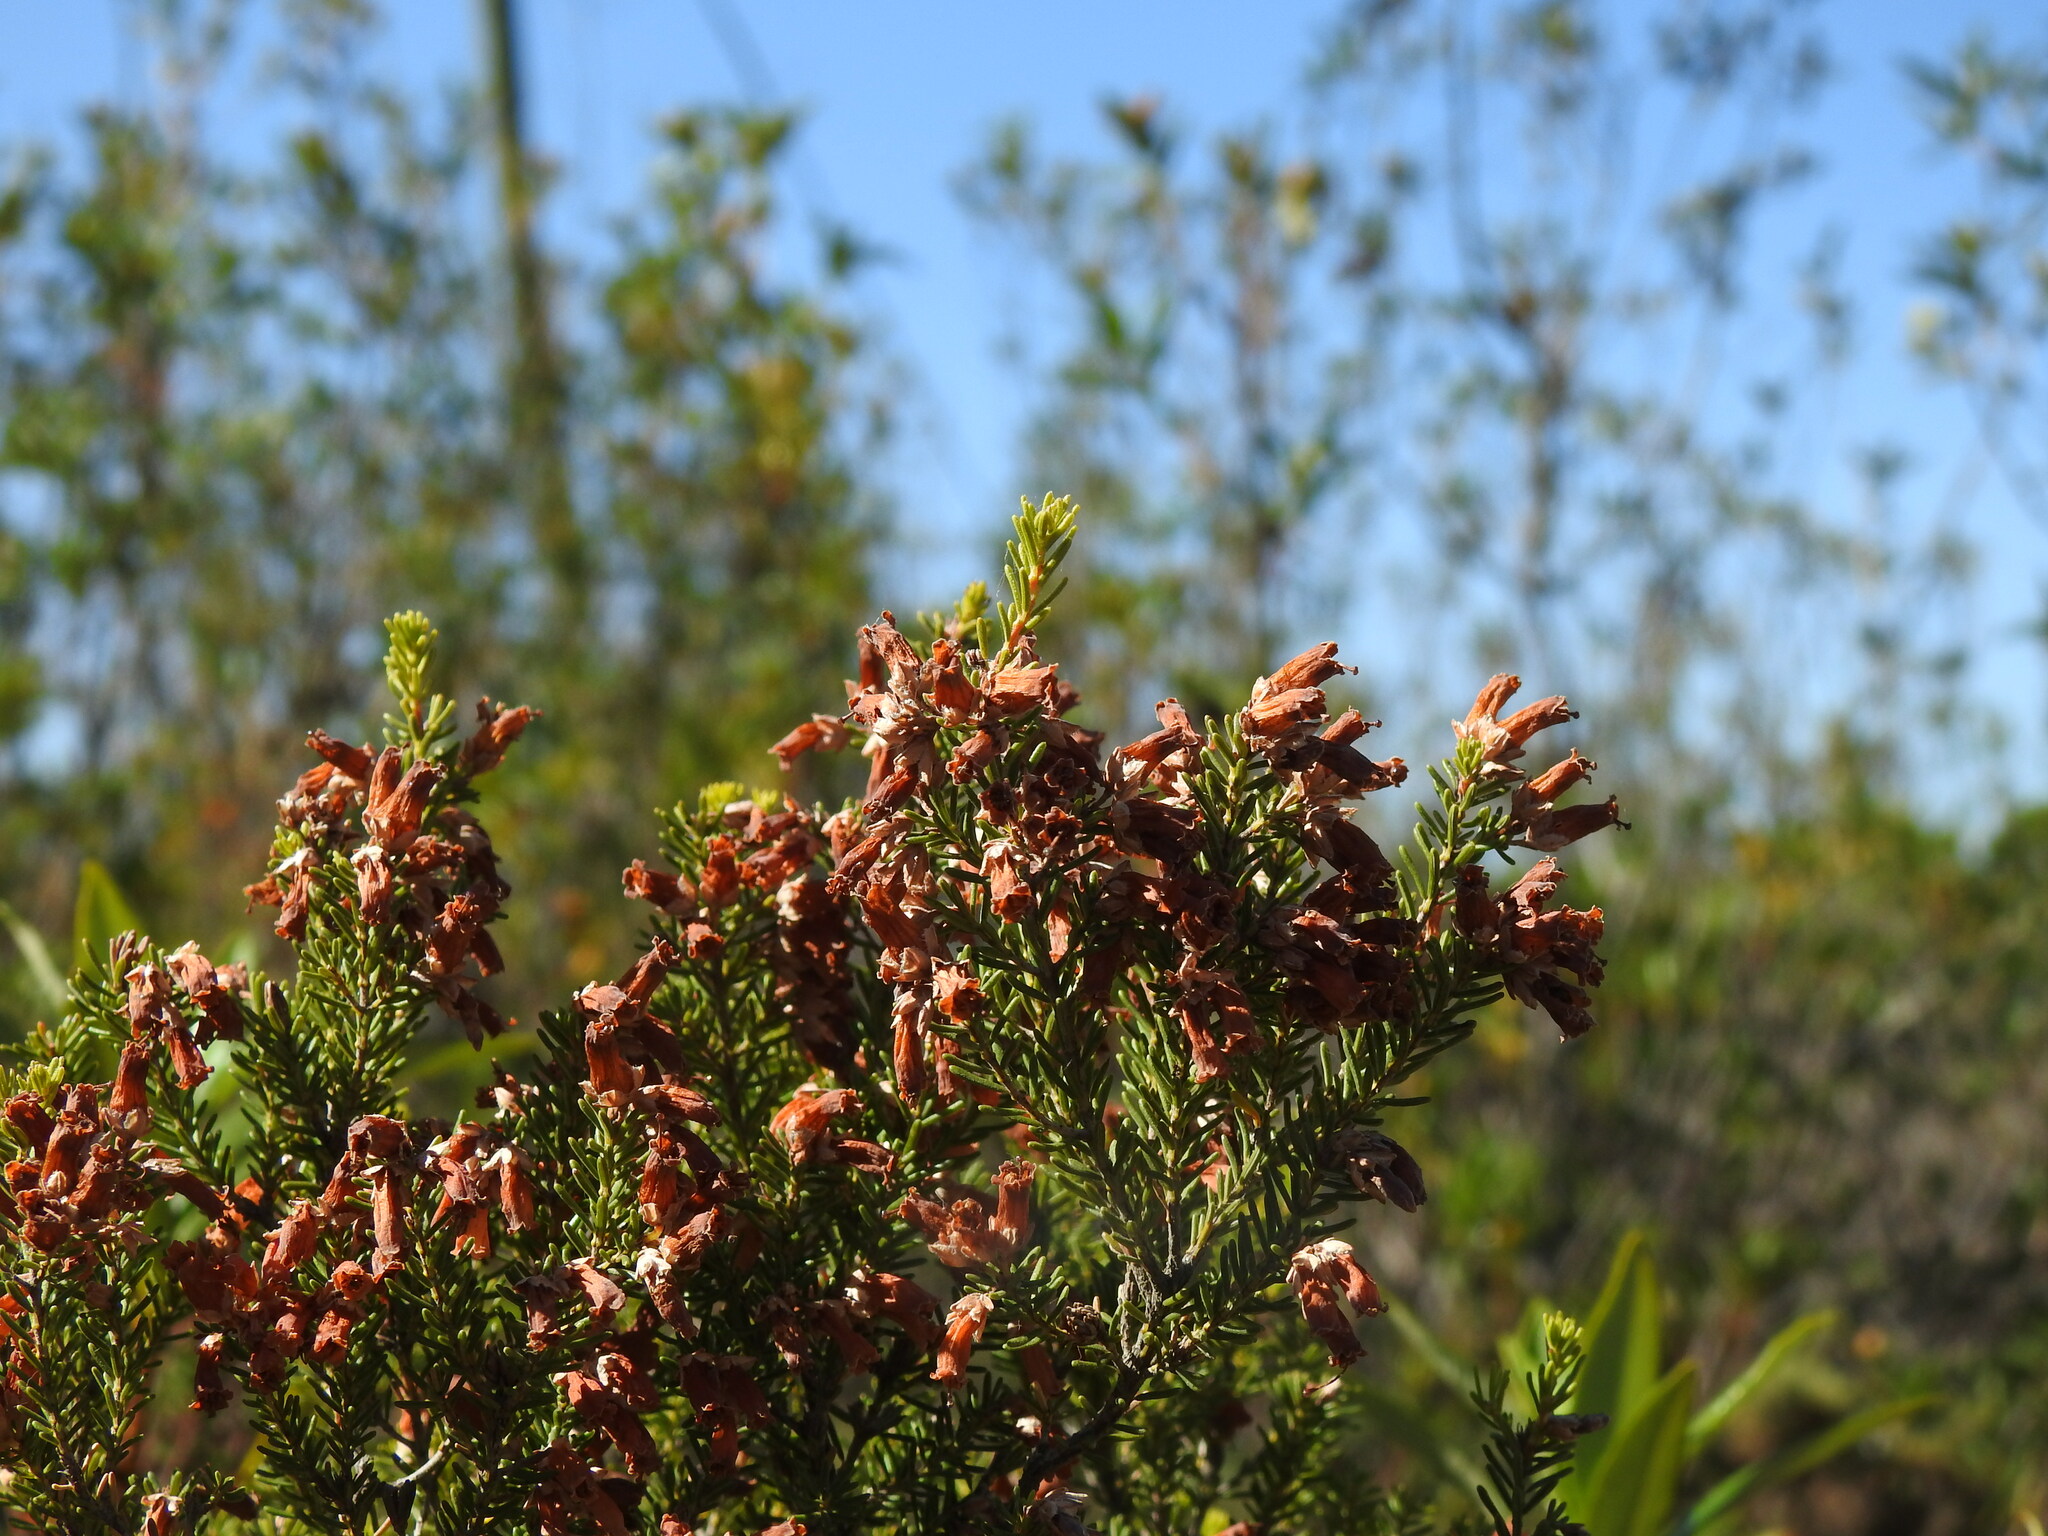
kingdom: Plantae
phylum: Tracheophyta
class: Magnoliopsida
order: Ericales
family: Ericaceae
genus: Erica
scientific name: Erica australis
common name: Spanish heath
